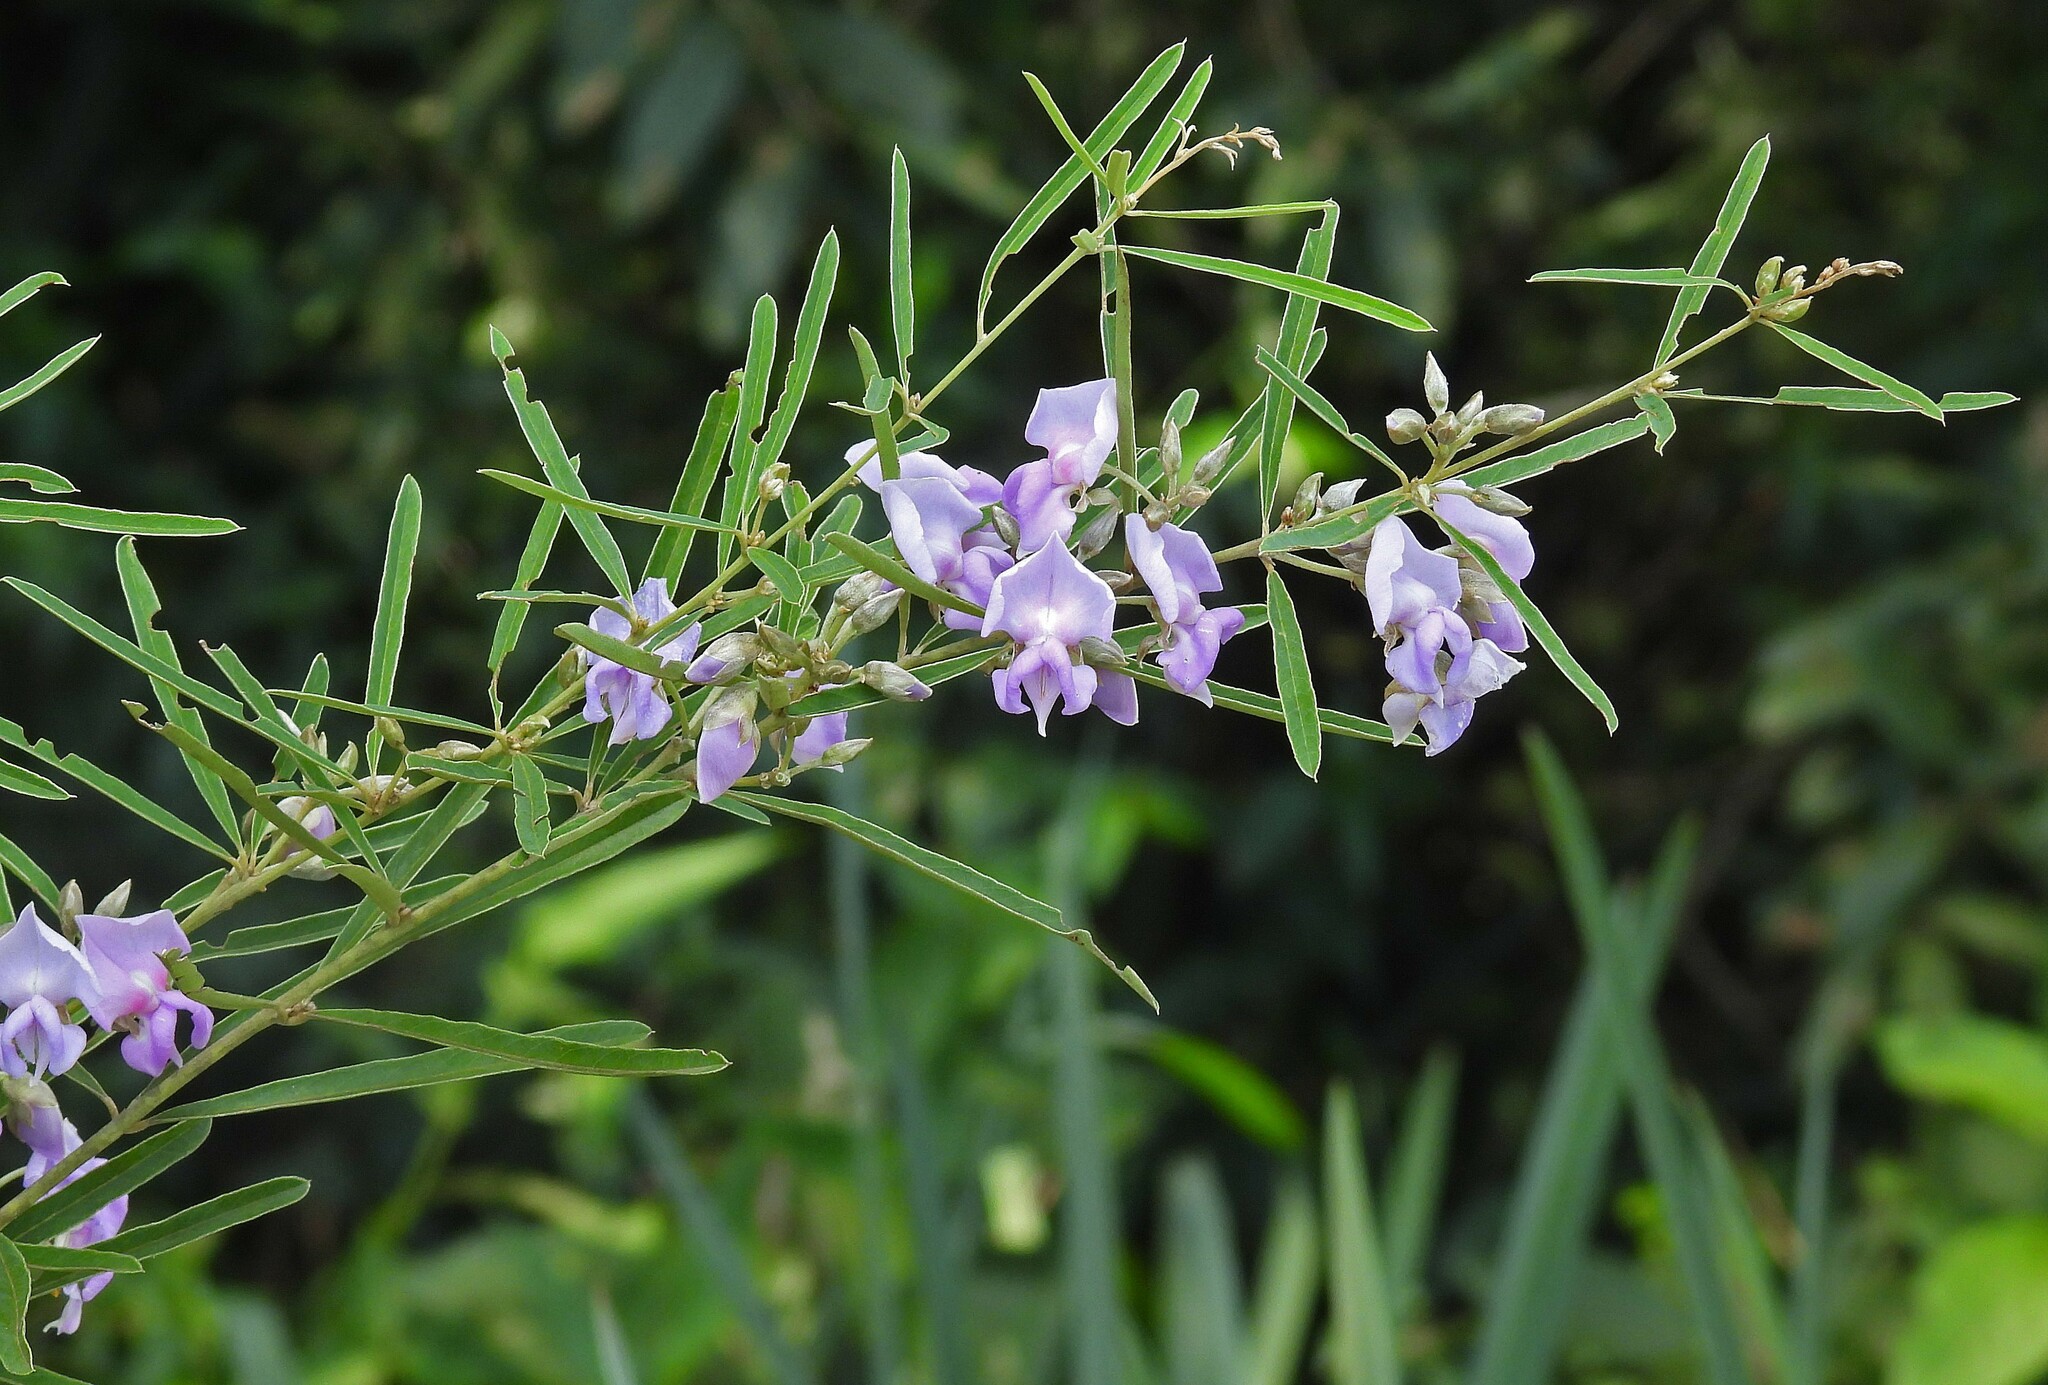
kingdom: Plantae
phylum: Tracheophyta
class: Magnoliopsida
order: Fabales
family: Fabaceae
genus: Collaea
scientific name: Collaea stenophylla
